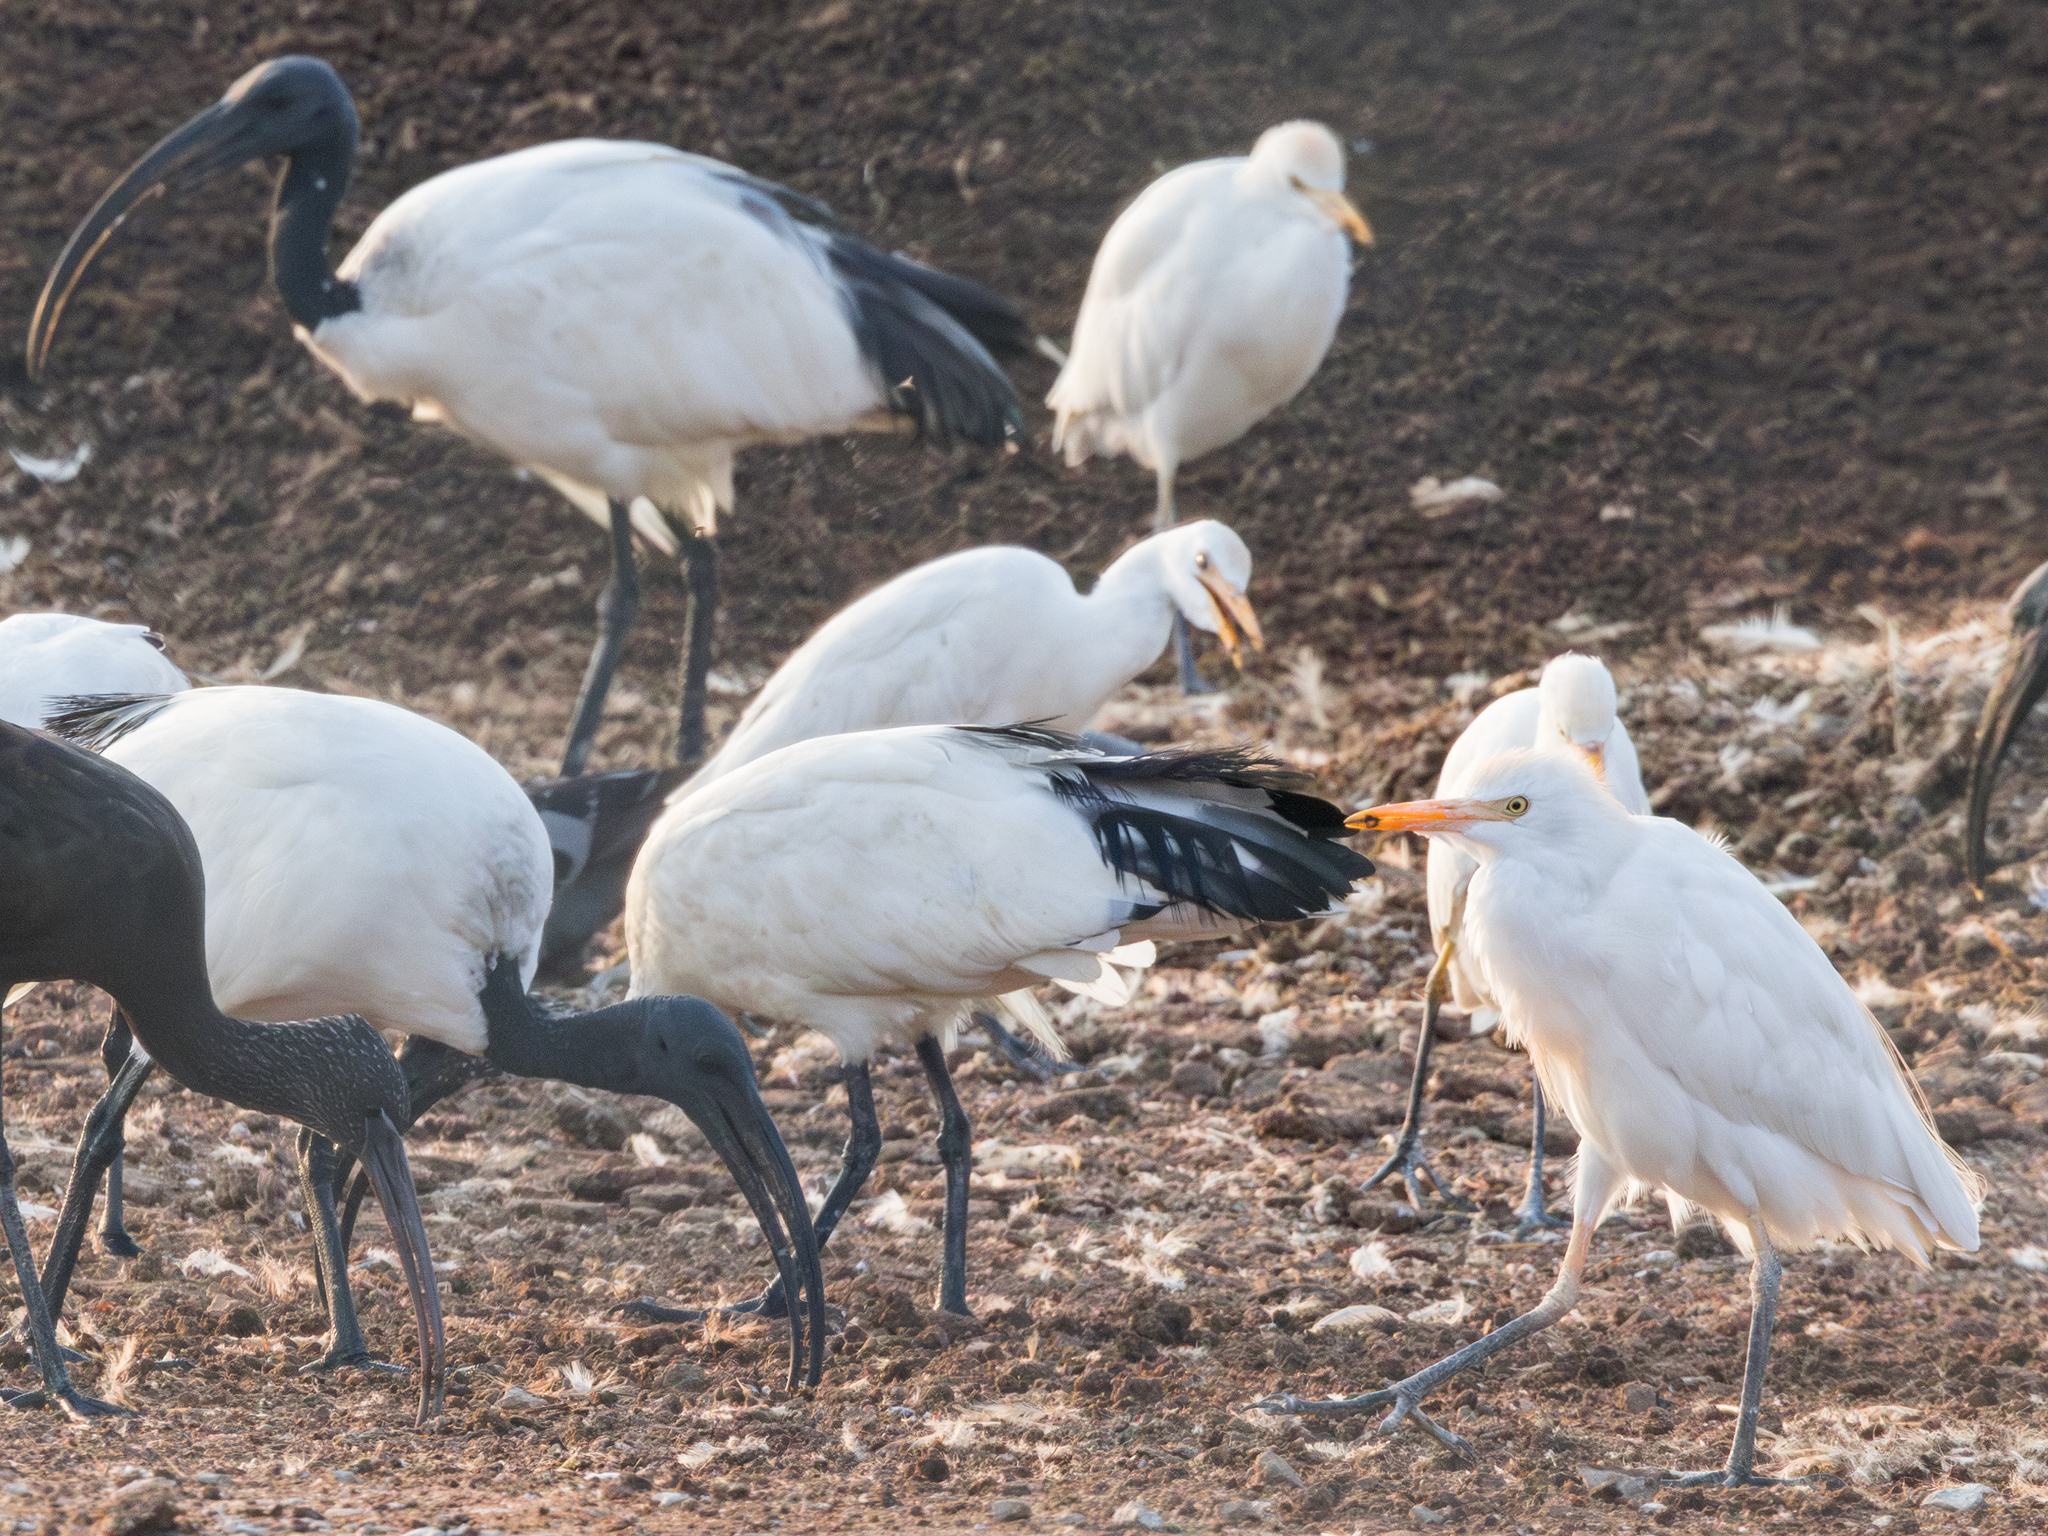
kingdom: Animalia
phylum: Chordata
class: Aves
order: Pelecaniformes
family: Ardeidae
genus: Bubulcus
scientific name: Bubulcus ibis
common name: Cattle egret
